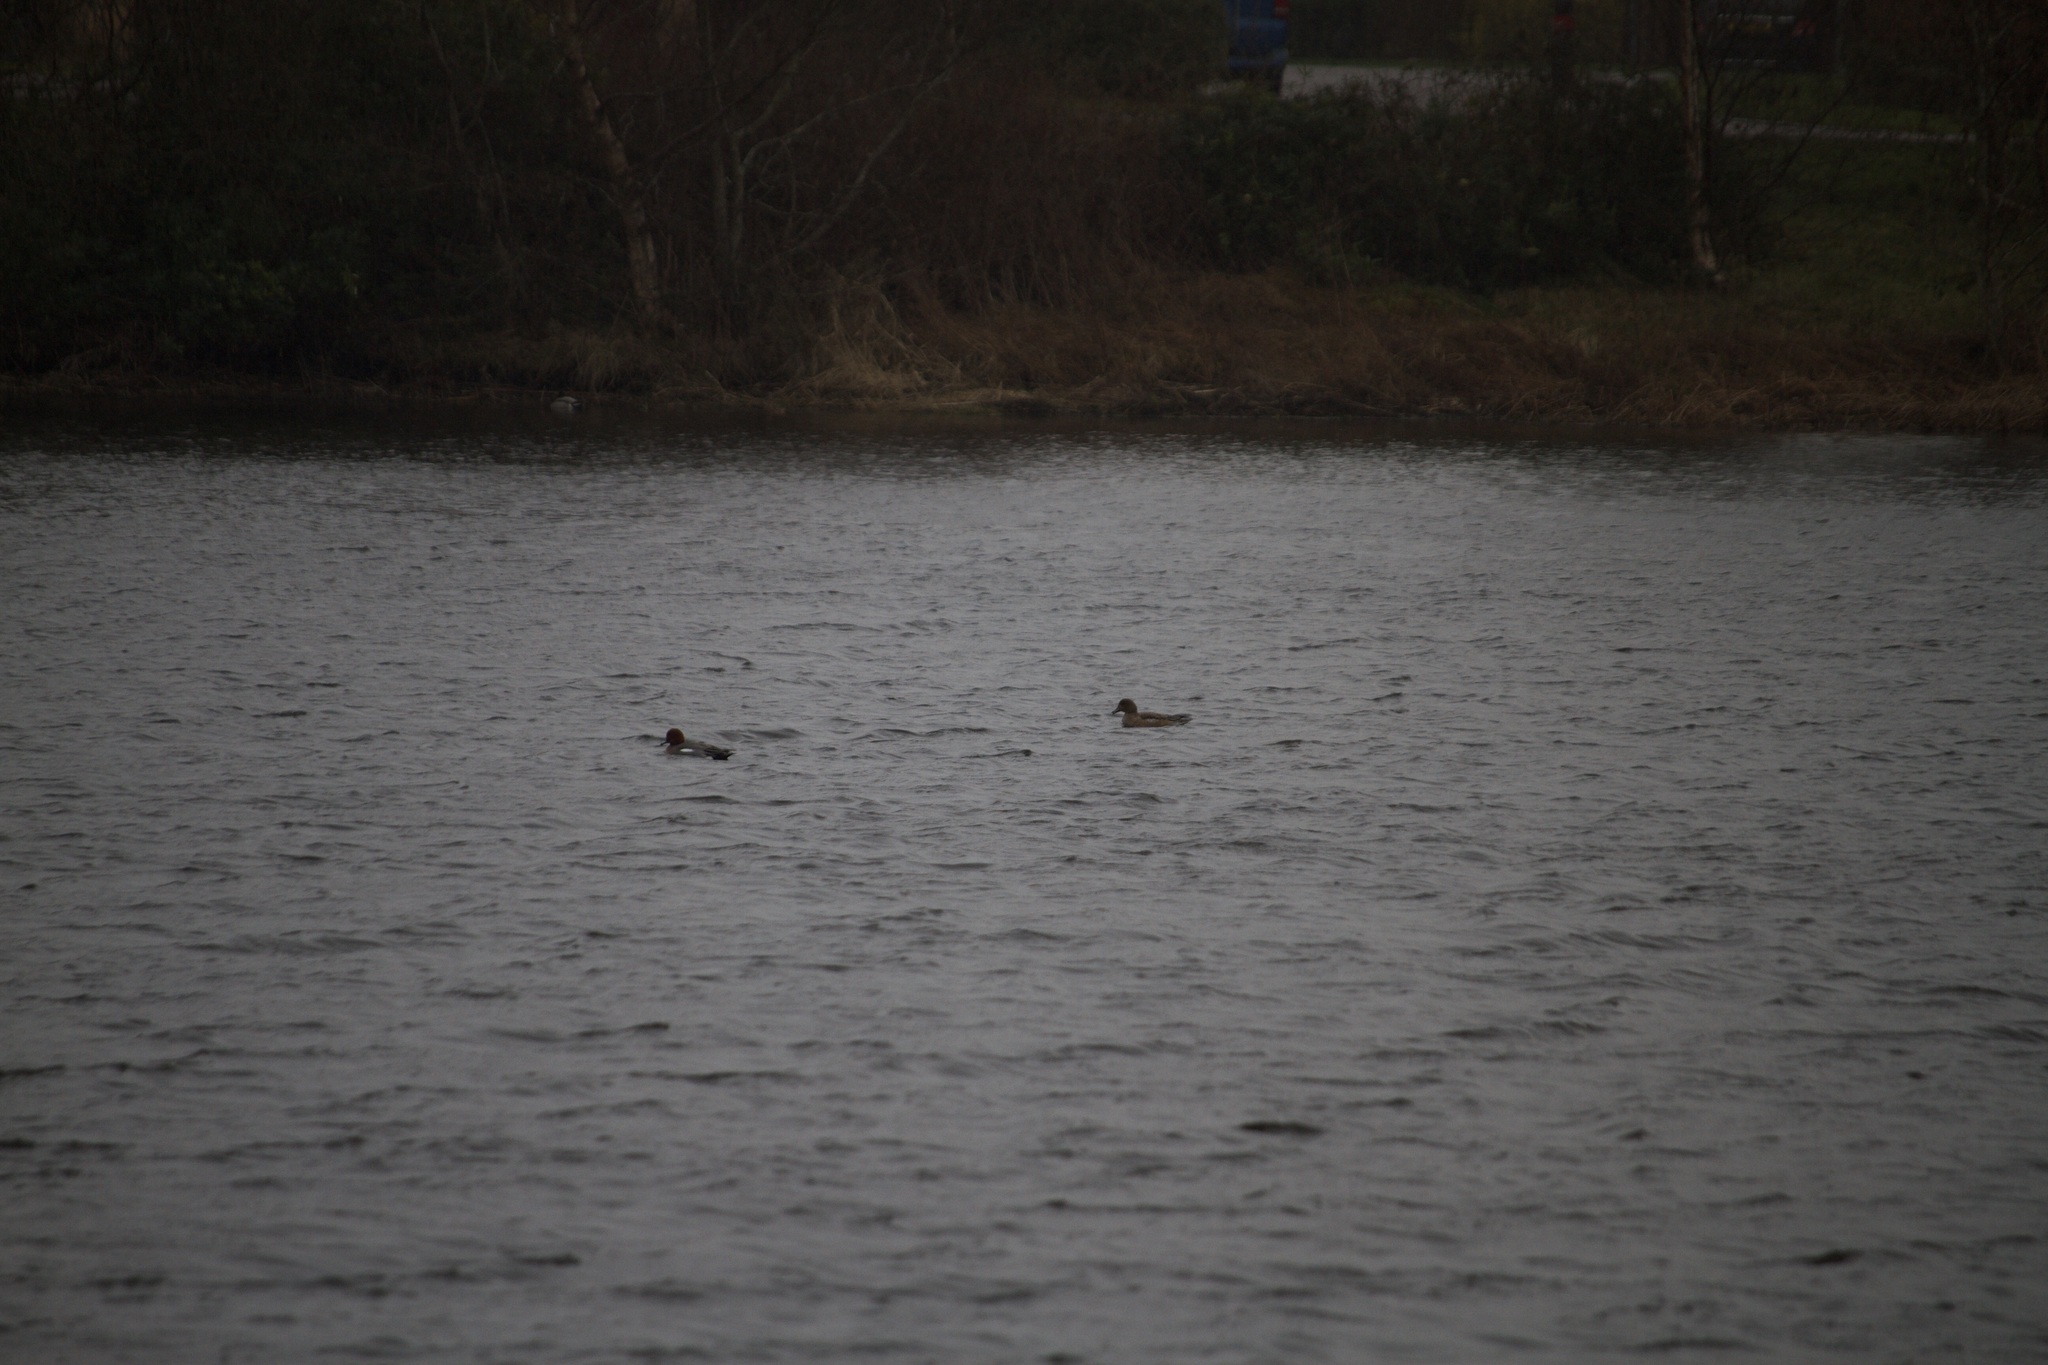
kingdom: Animalia
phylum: Chordata
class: Aves
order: Anseriformes
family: Anatidae
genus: Mareca
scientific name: Mareca penelope
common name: Eurasian wigeon
